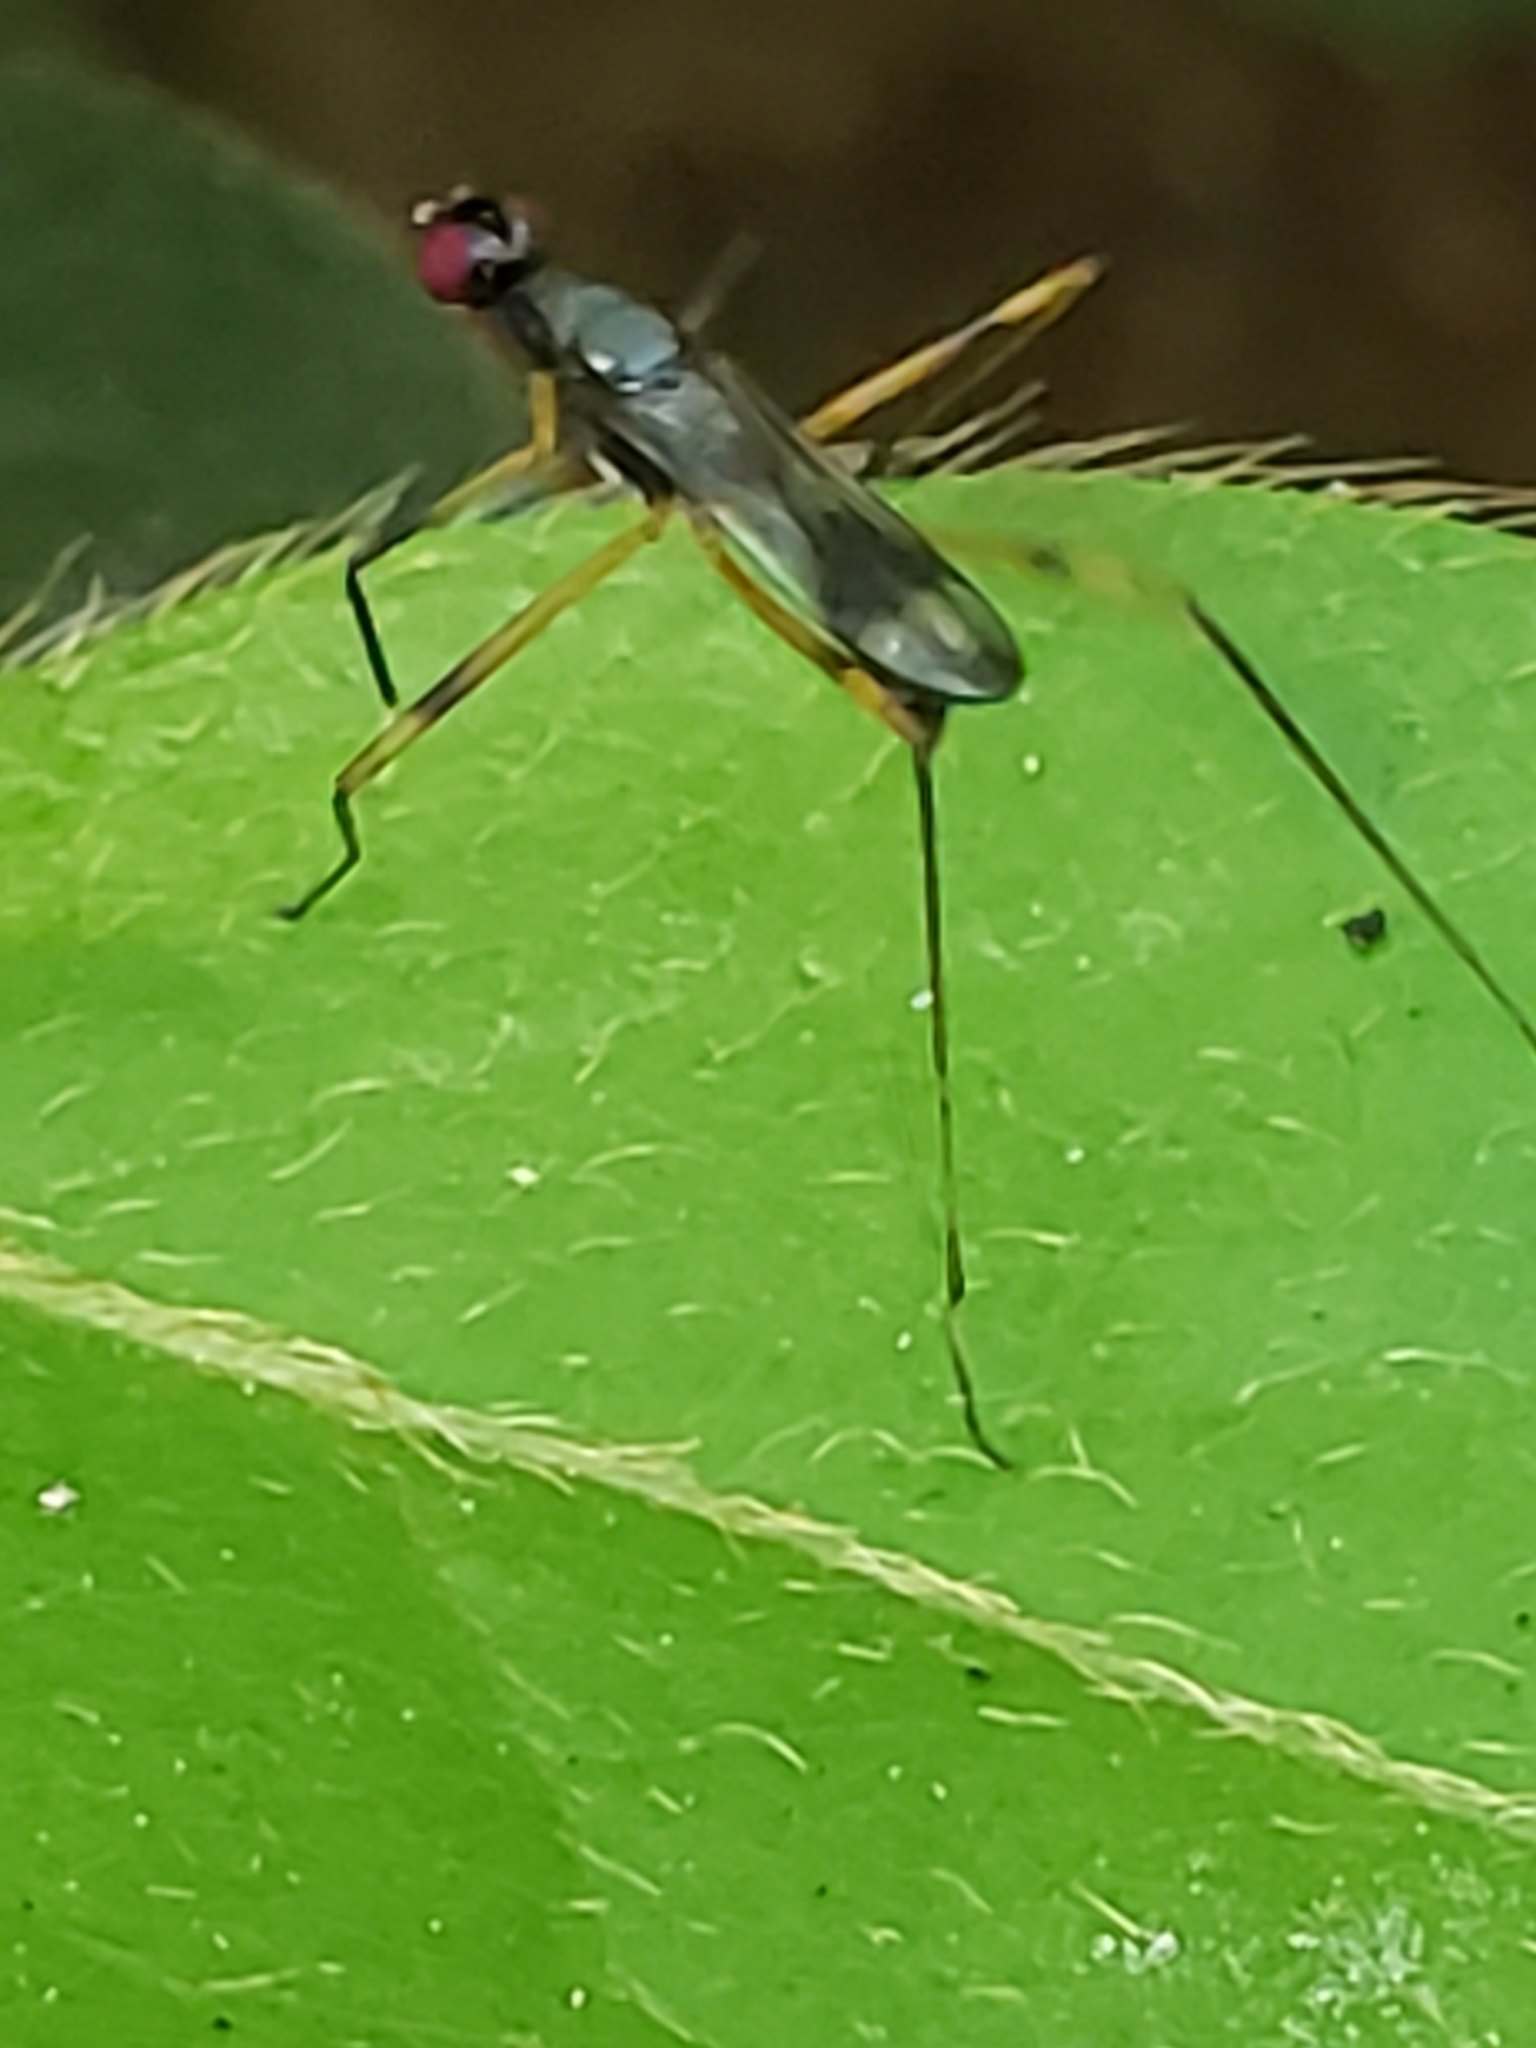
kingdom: Animalia
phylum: Arthropoda
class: Insecta
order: Diptera
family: Micropezidae
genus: Rainieria
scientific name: Rainieria antennaepes
